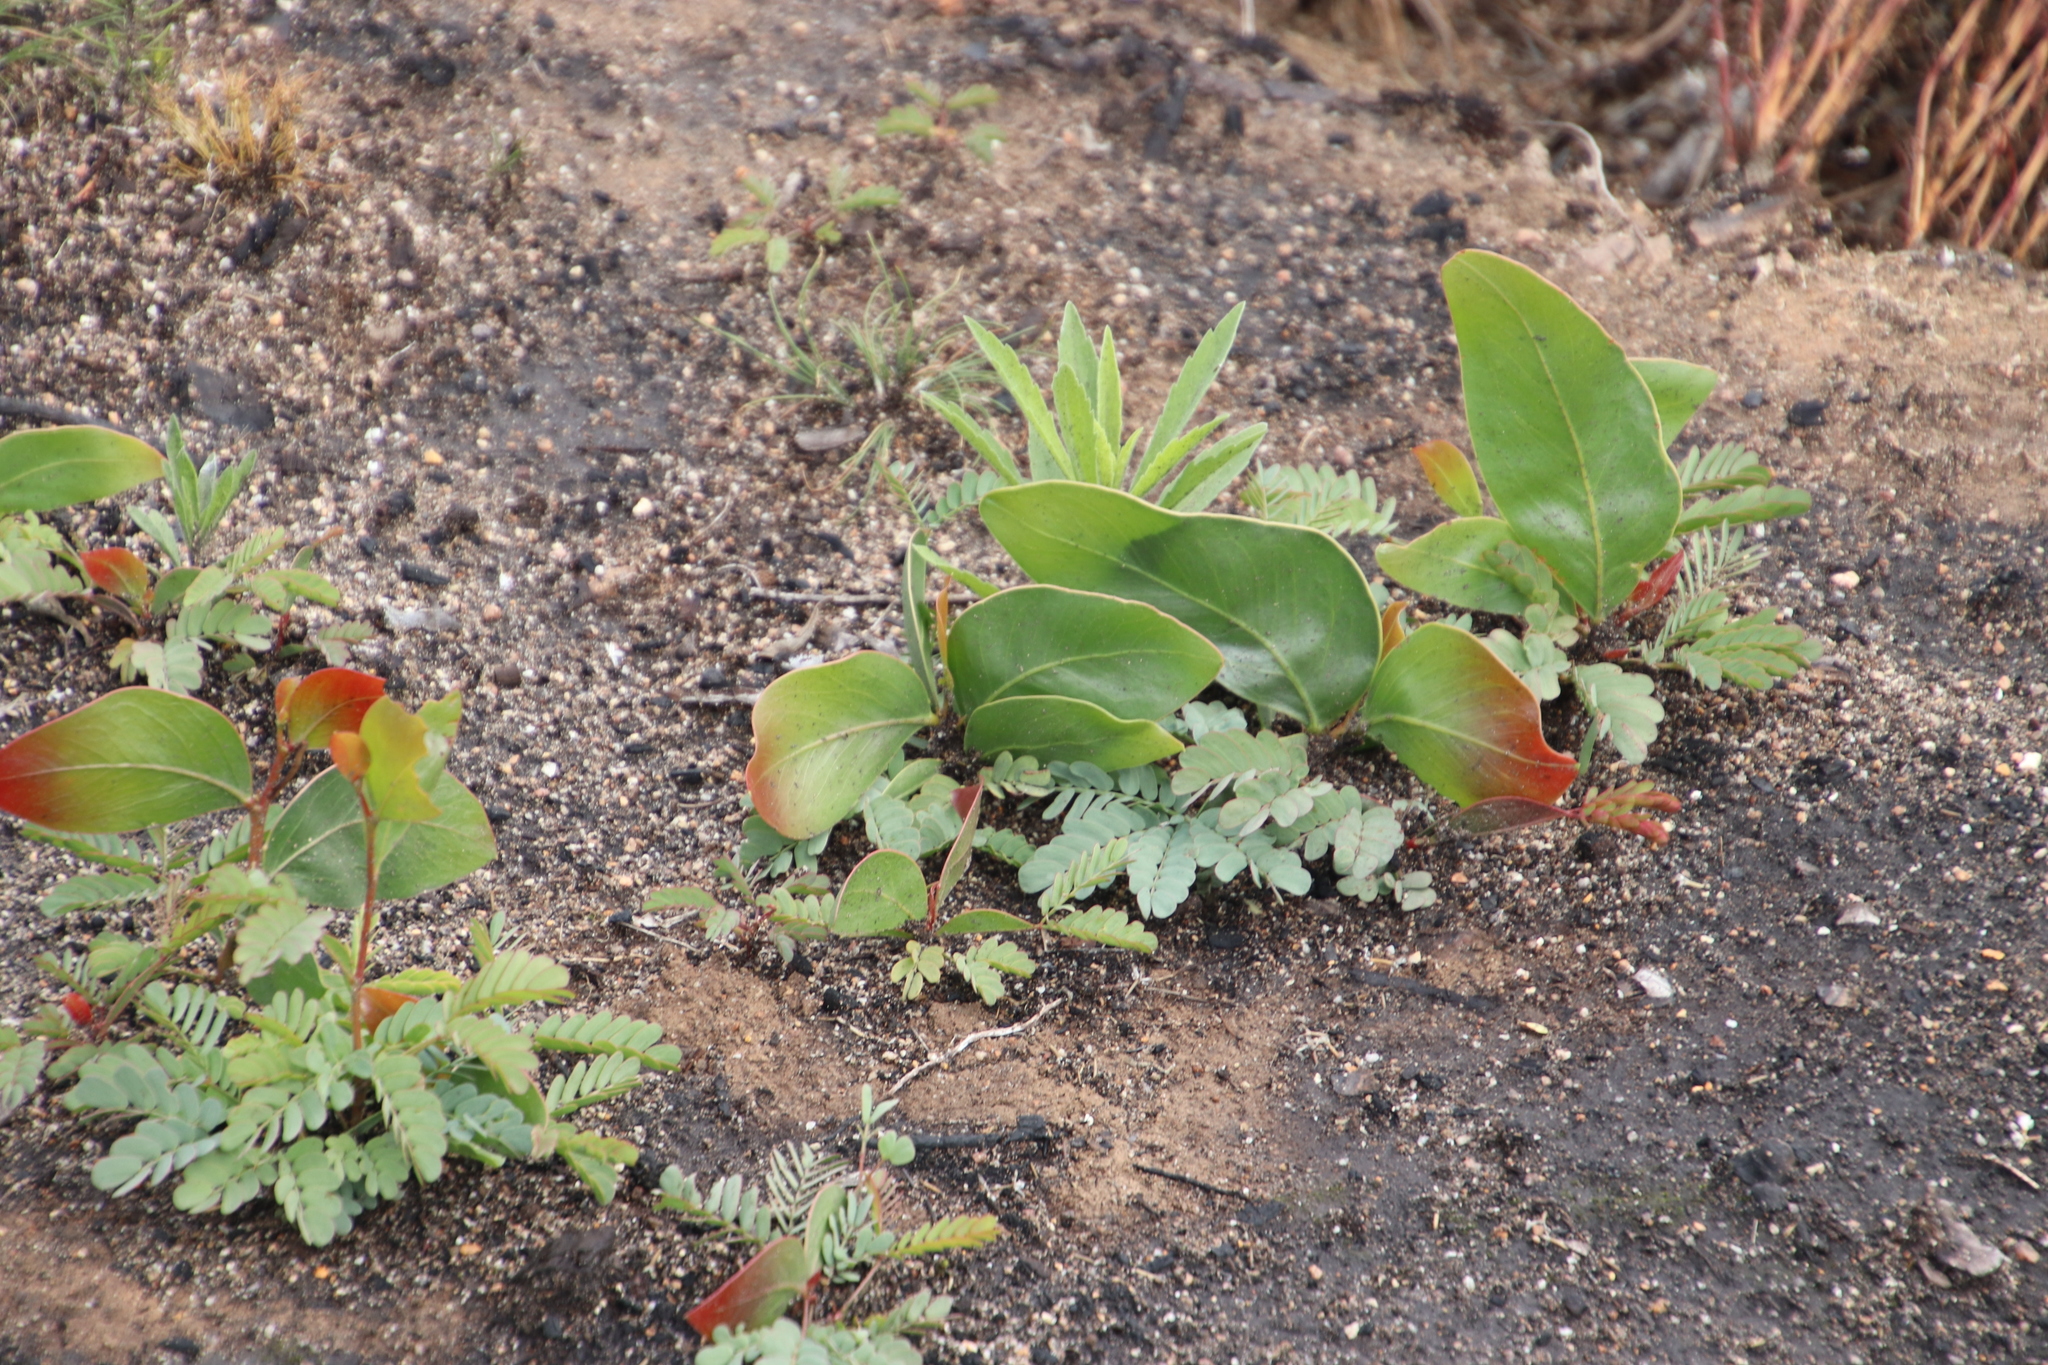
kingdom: Plantae
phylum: Tracheophyta
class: Magnoliopsida
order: Fabales
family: Fabaceae
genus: Acacia
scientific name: Acacia pycnantha
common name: Golden wattle
